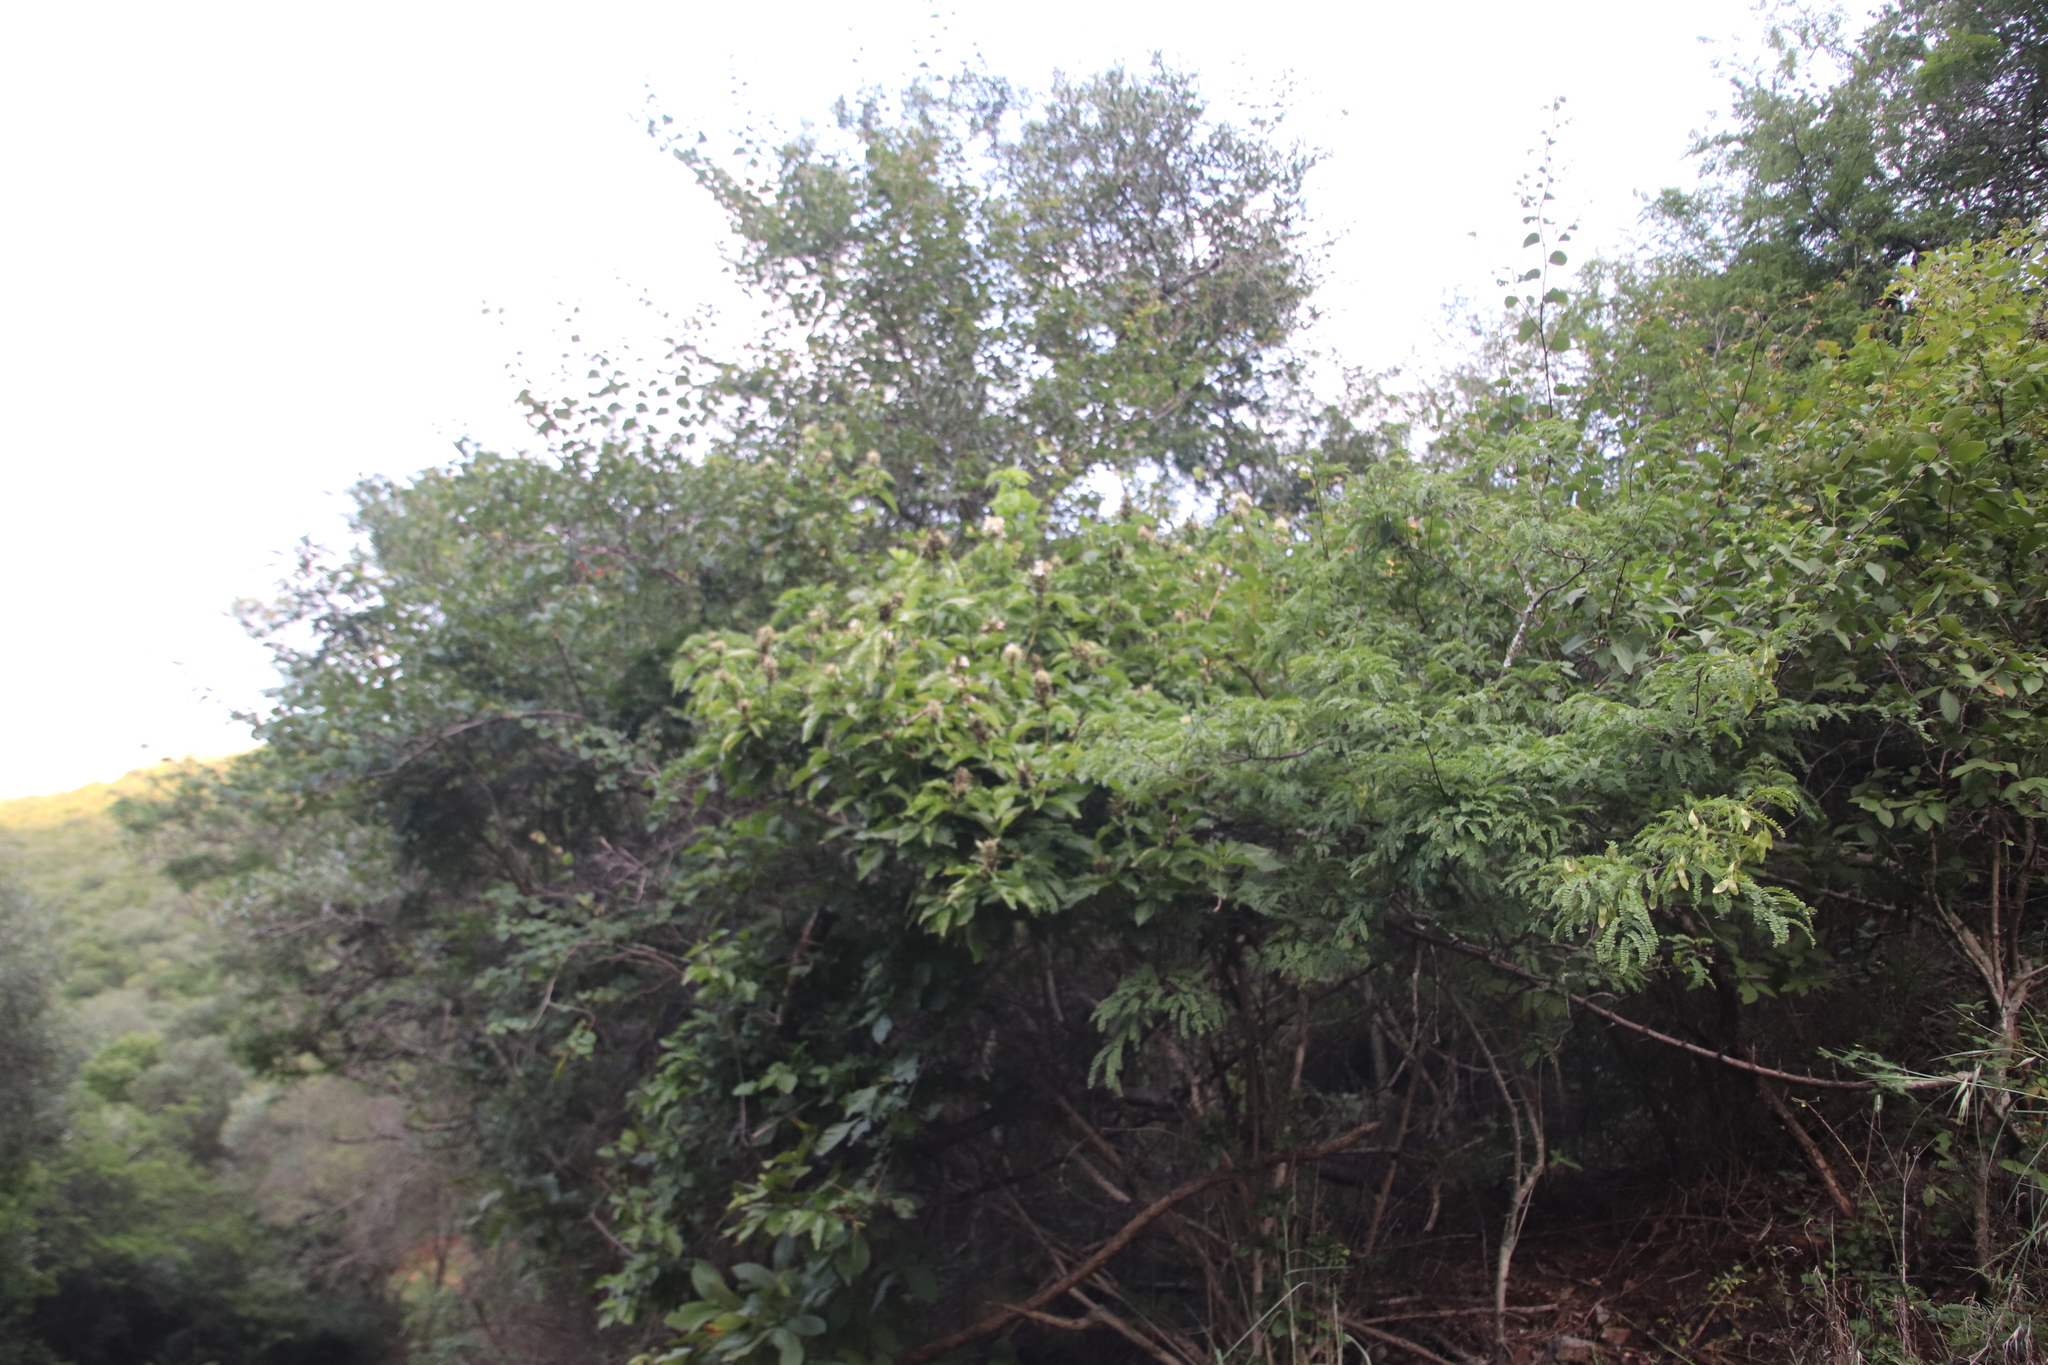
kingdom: Plantae
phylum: Tracheophyta
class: Magnoliopsida
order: Lamiales
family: Acanthaceae
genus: Ruttya
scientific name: Ruttya ovata
